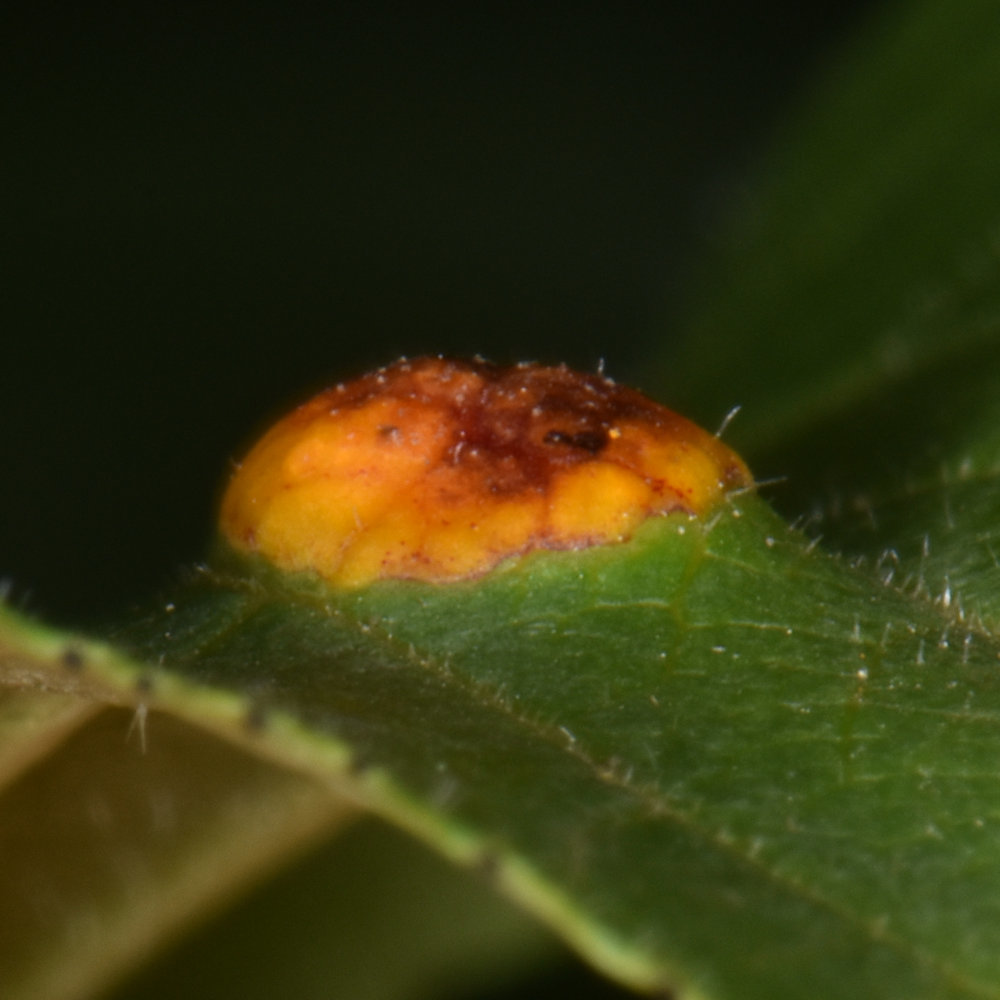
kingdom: Fungi
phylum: Basidiomycota
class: Pucciniomycetes
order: Pucciniales
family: Pucciniaceae
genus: Puccinia
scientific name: Puccinia coronata
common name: Crown rust
